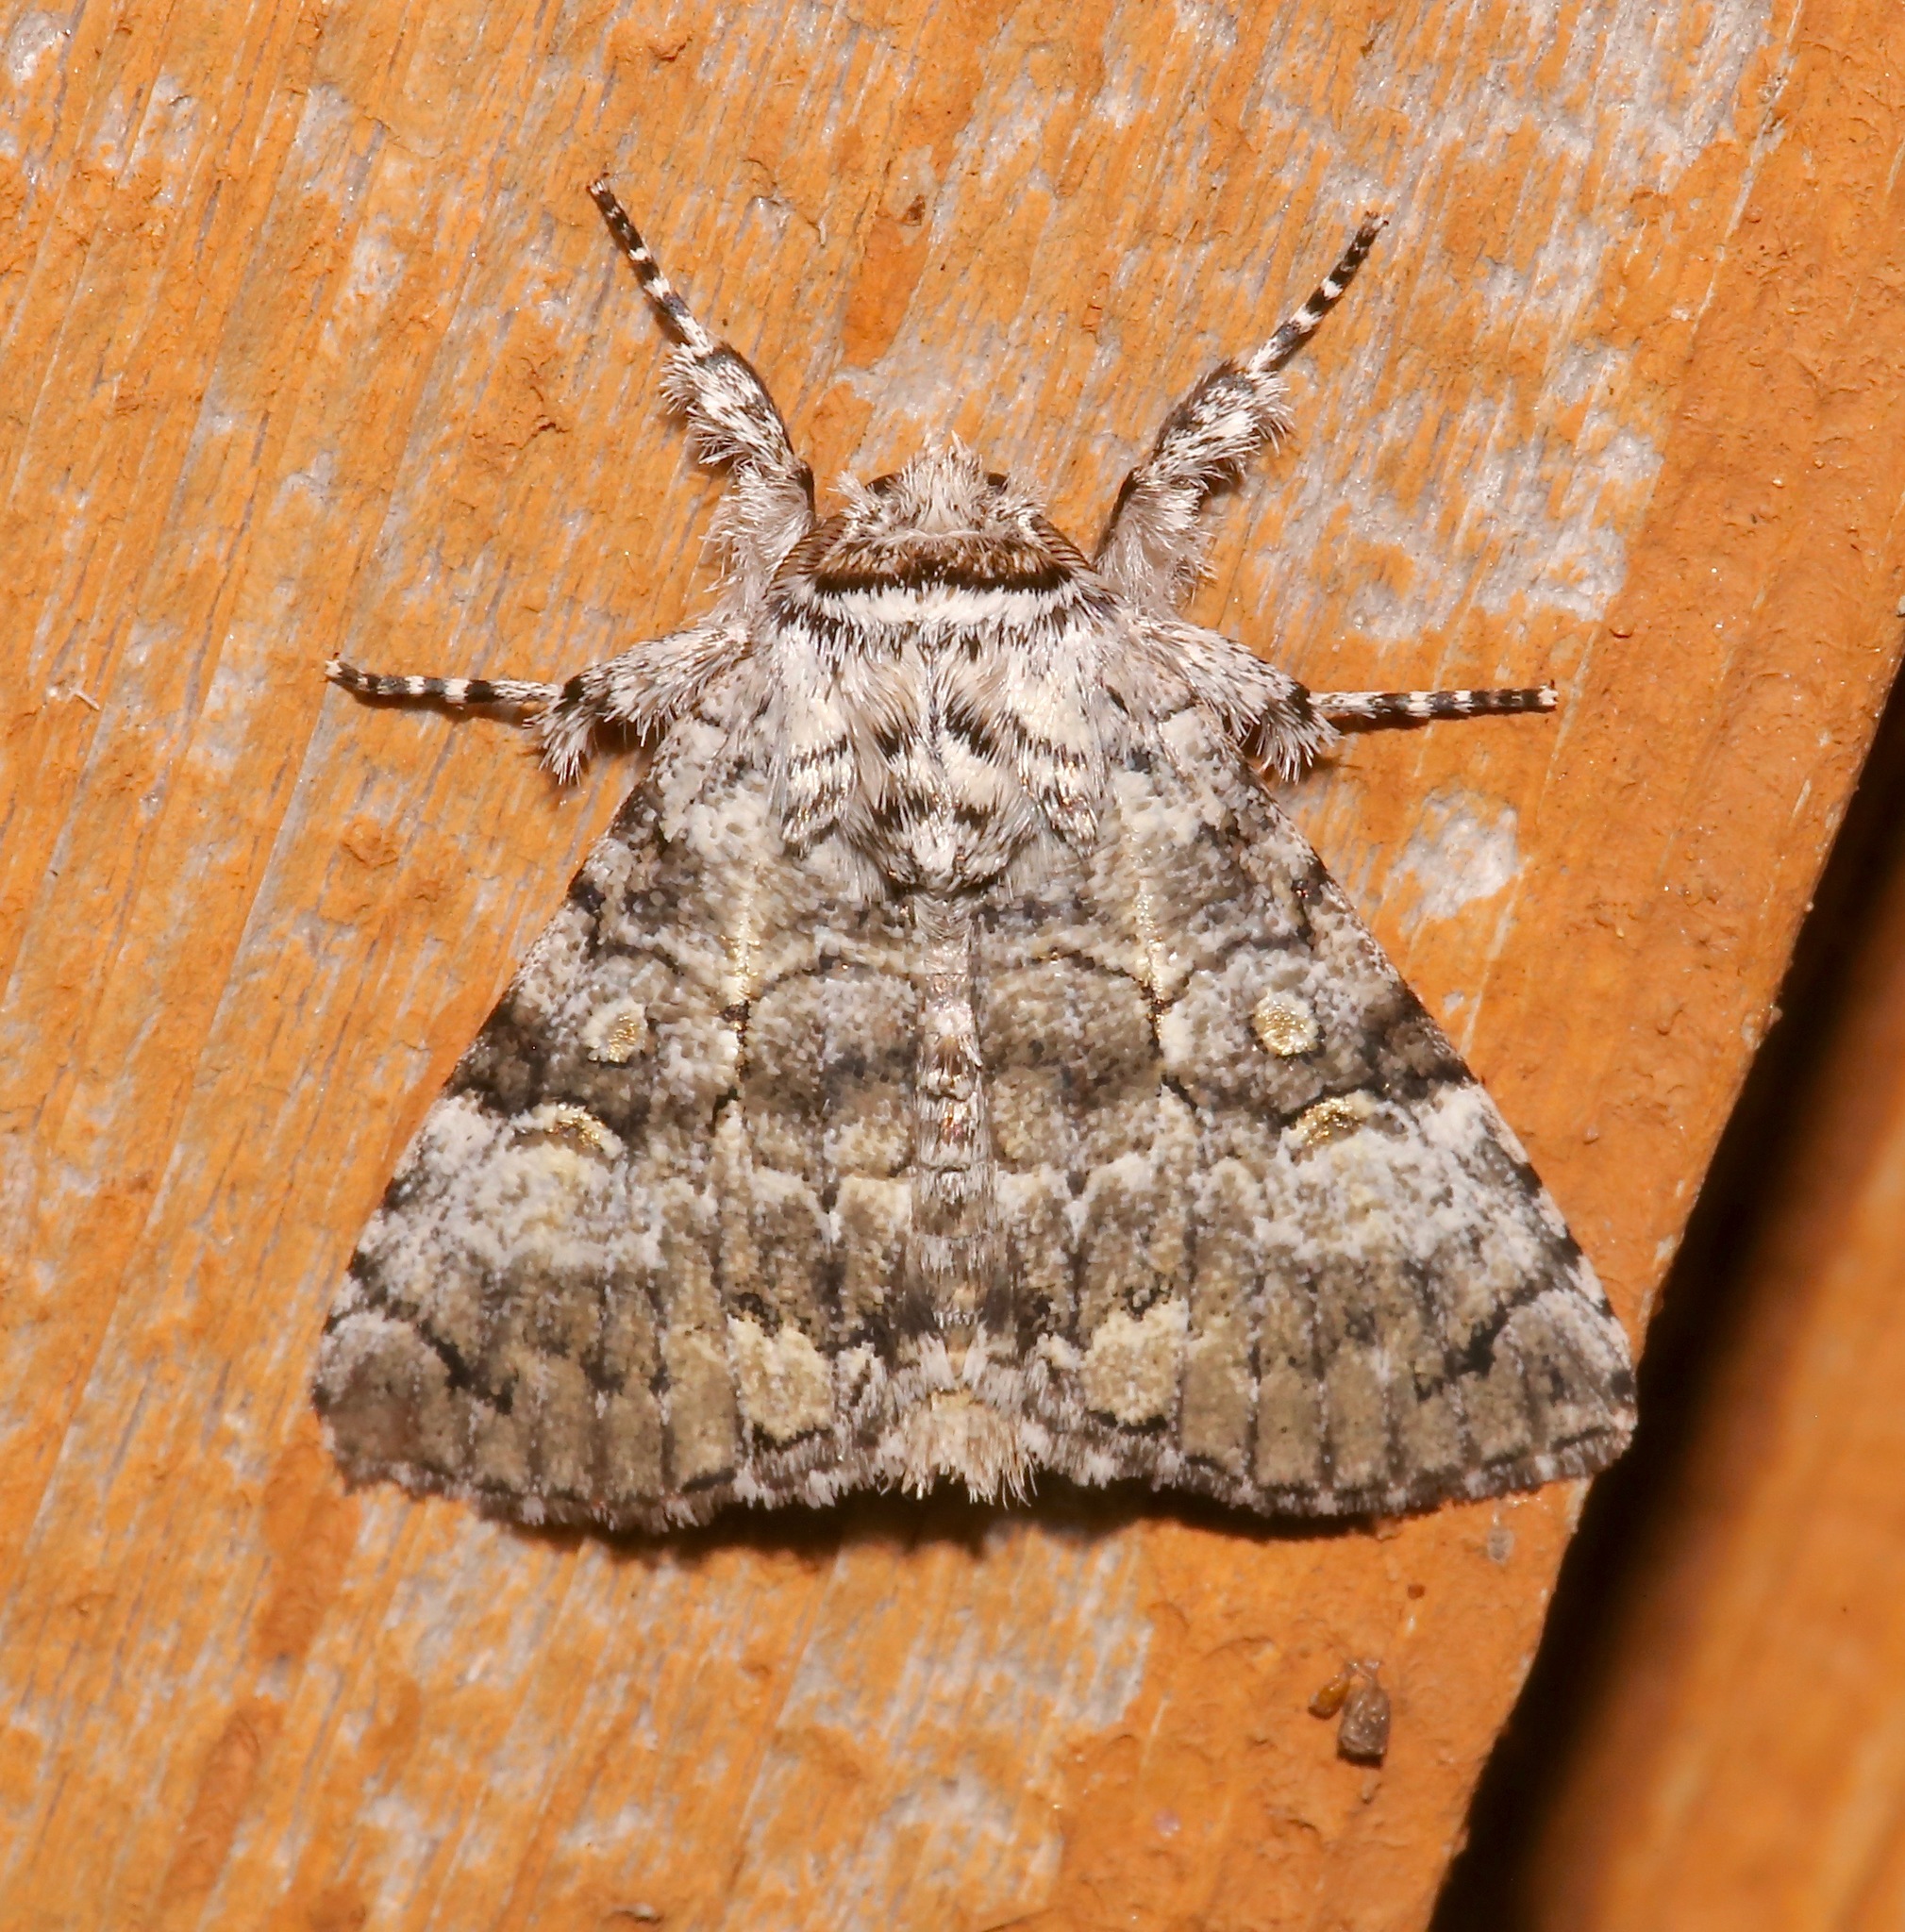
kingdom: Animalia
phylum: Arthropoda
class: Insecta
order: Lepidoptera
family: Noctuidae
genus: Charadra
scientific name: Charadra deridens
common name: Marbled tuffet
